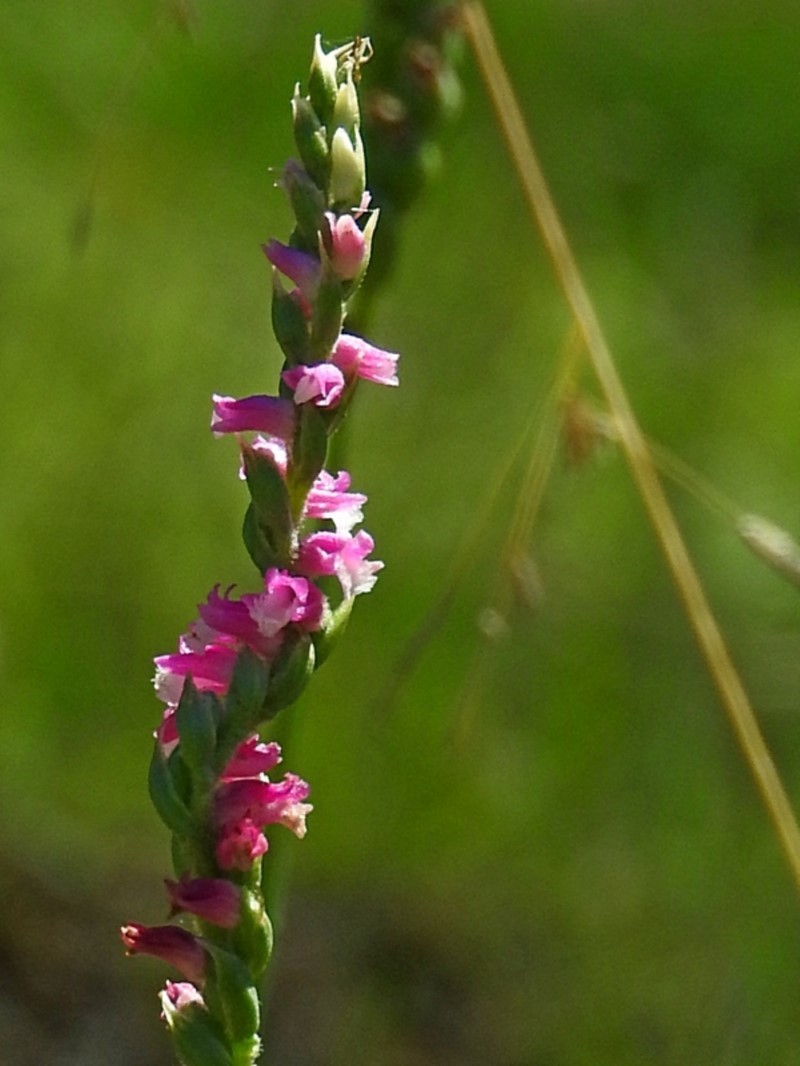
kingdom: Plantae
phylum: Tracheophyta
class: Liliopsida
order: Asparagales
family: Orchidaceae
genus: Spiranthes
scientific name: Spiranthes australis
